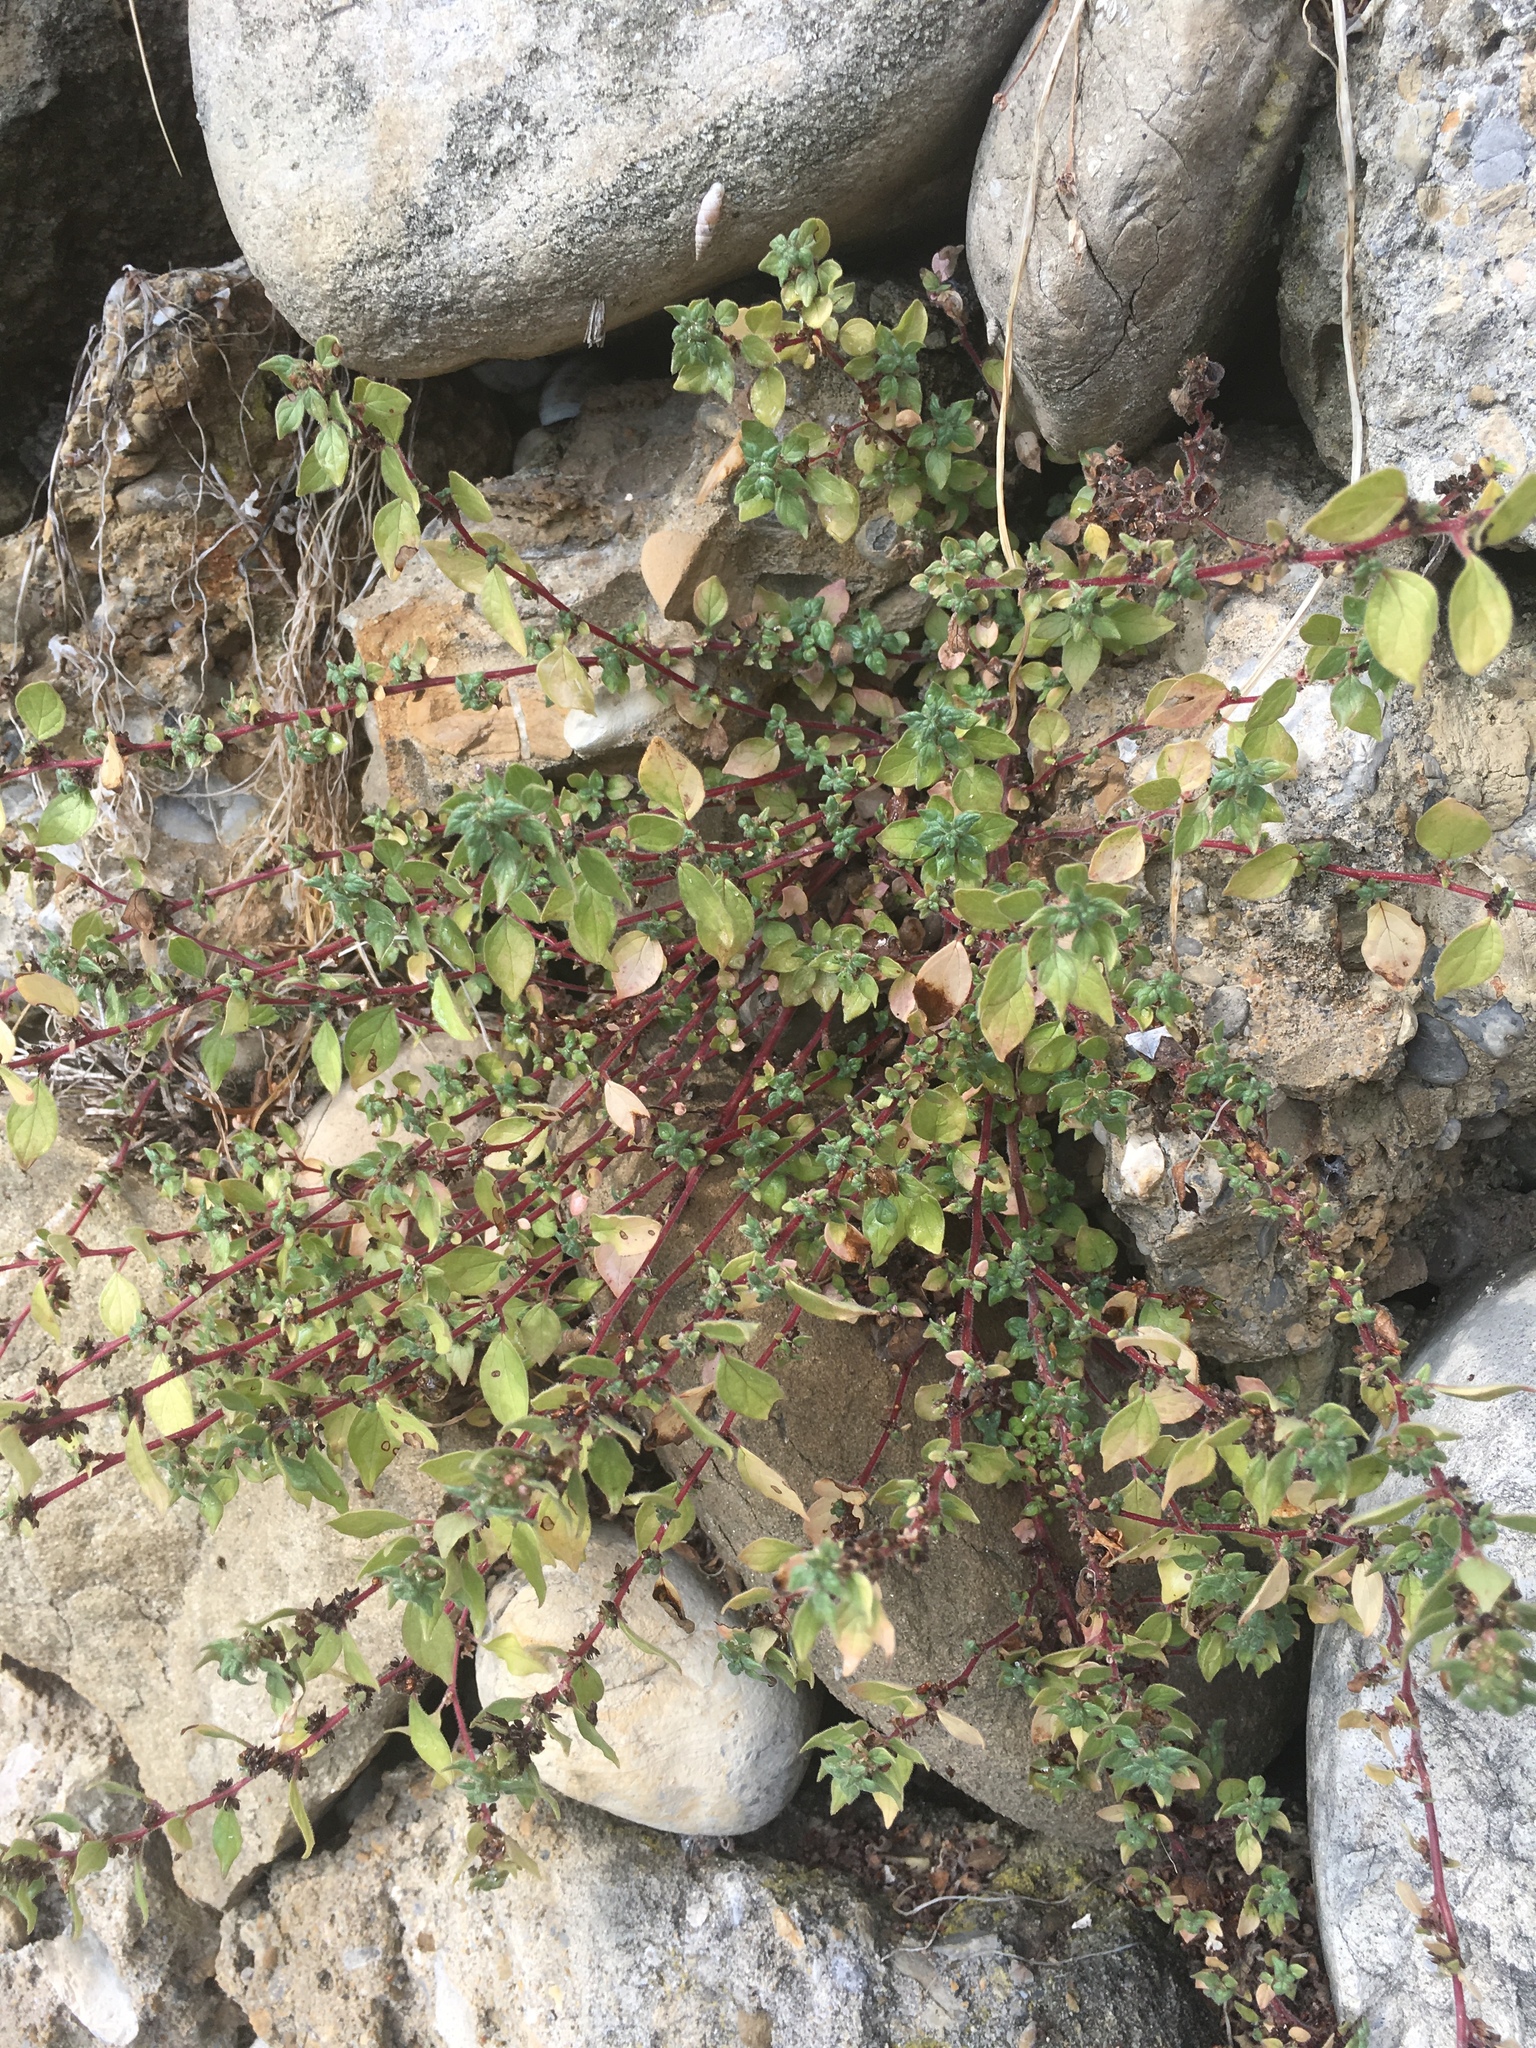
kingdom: Plantae
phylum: Tracheophyta
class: Magnoliopsida
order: Rosales
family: Urticaceae
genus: Parietaria
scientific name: Parietaria judaica
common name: Pellitory-of-the-wall
